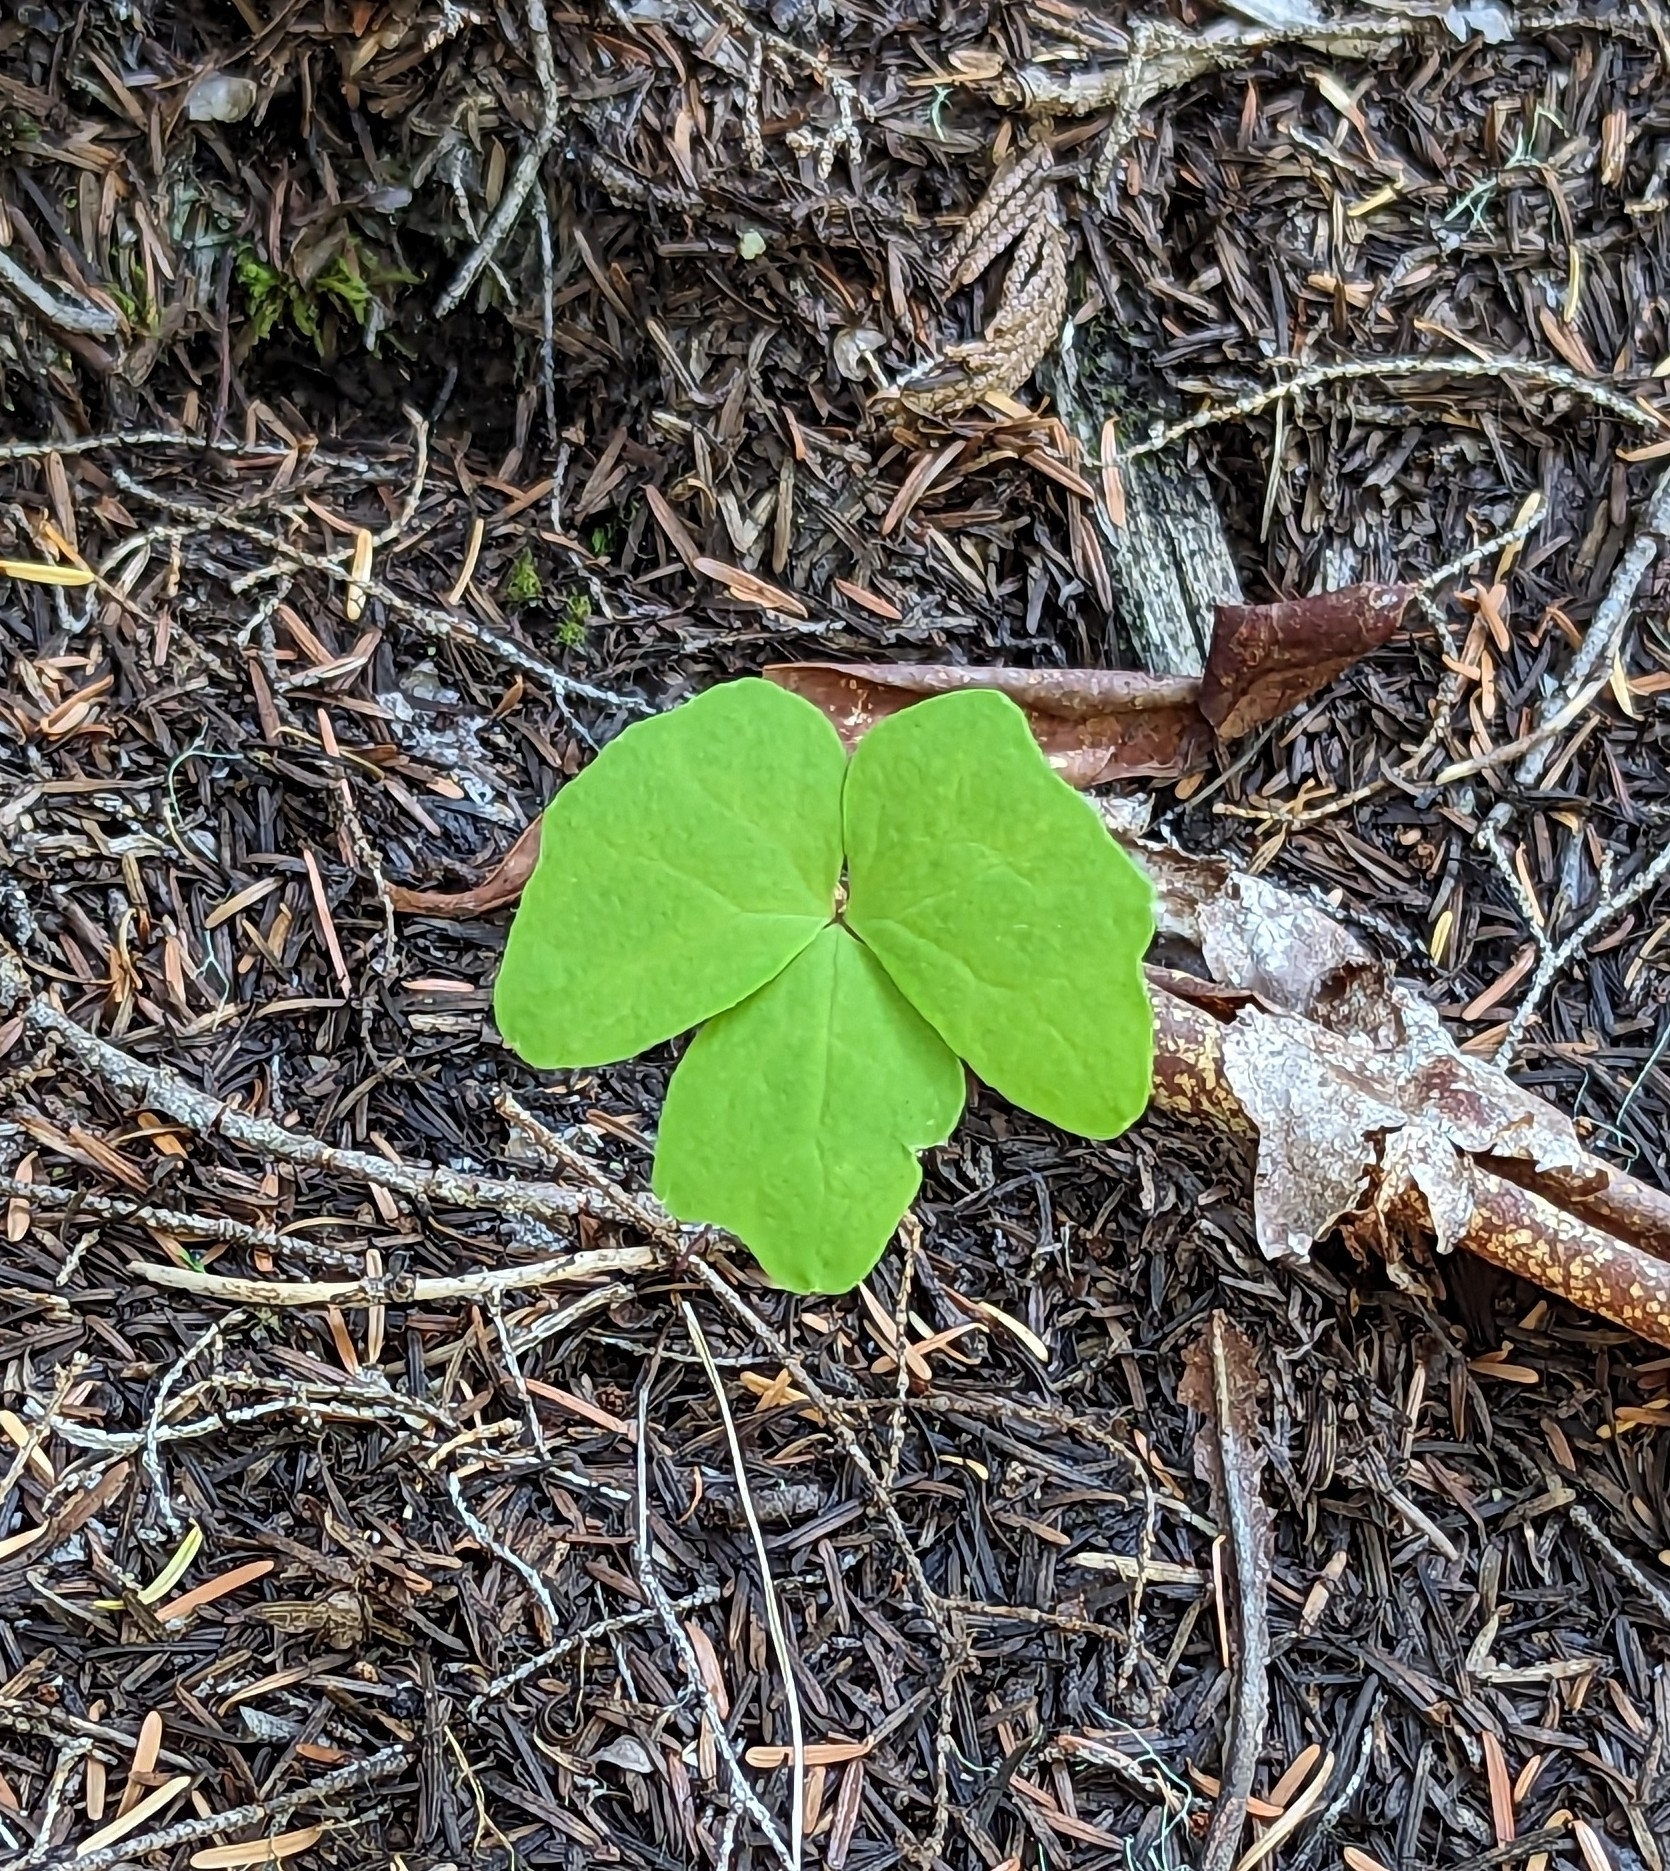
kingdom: Plantae
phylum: Tracheophyta
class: Magnoliopsida
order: Ranunculales
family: Berberidaceae
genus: Achlys
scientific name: Achlys triphylla
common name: Vanilla-leaf
